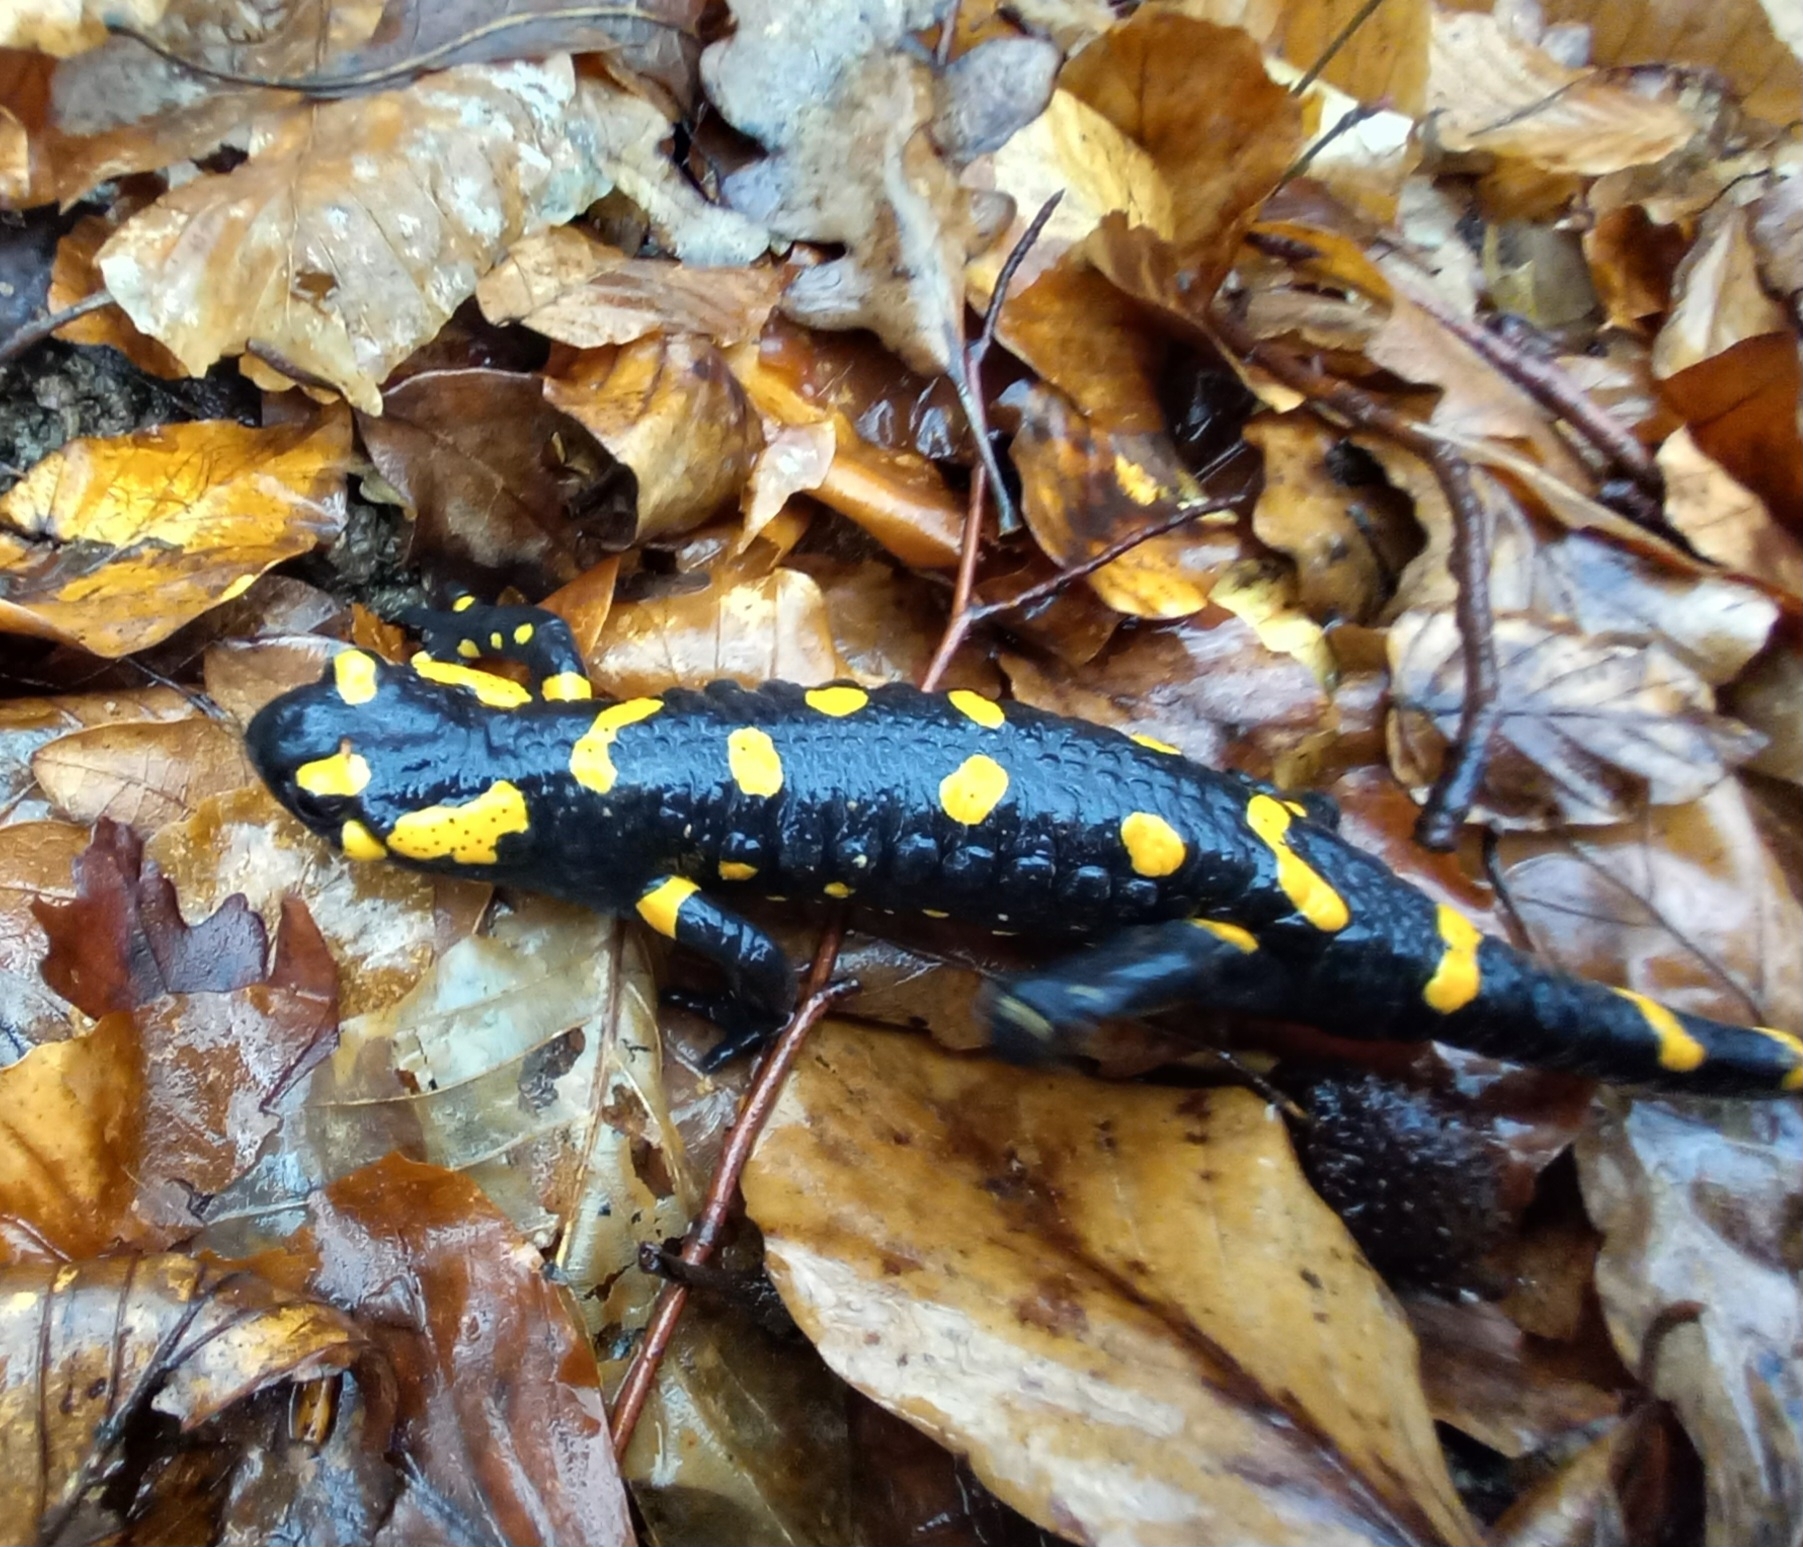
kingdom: Animalia
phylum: Chordata
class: Amphibia
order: Caudata
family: Salamandridae
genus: Salamandra
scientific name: Salamandra salamandra
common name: Fire salamander
